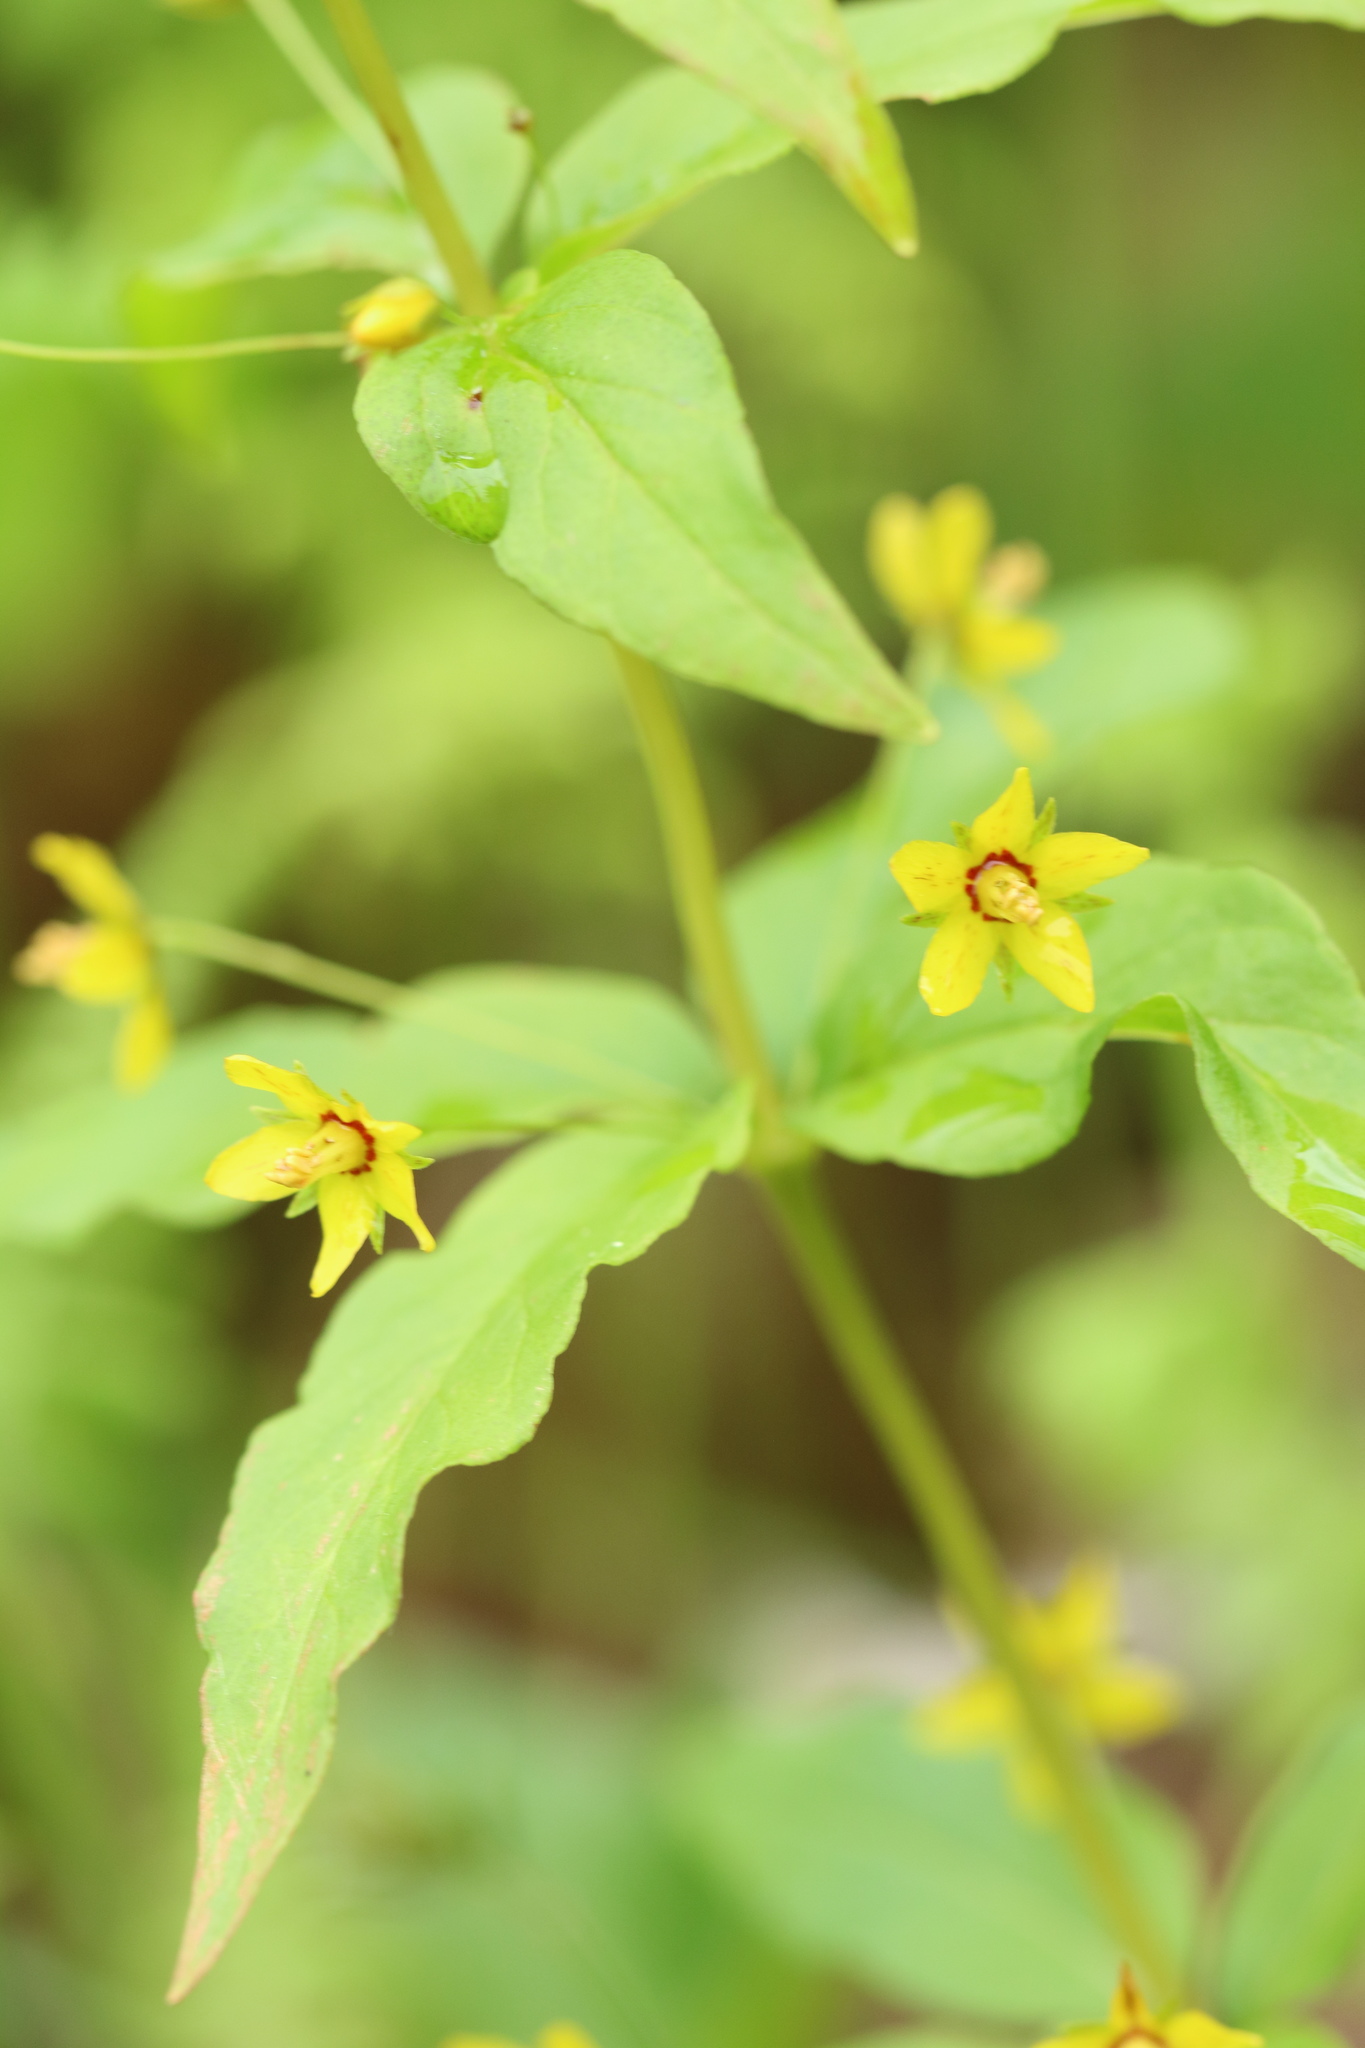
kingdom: Plantae
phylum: Tracheophyta
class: Magnoliopsida
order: Ericales
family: Primulaceae
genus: Lysimachia
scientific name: Lysimachia quadrifolia
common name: Whorled loosestrife
